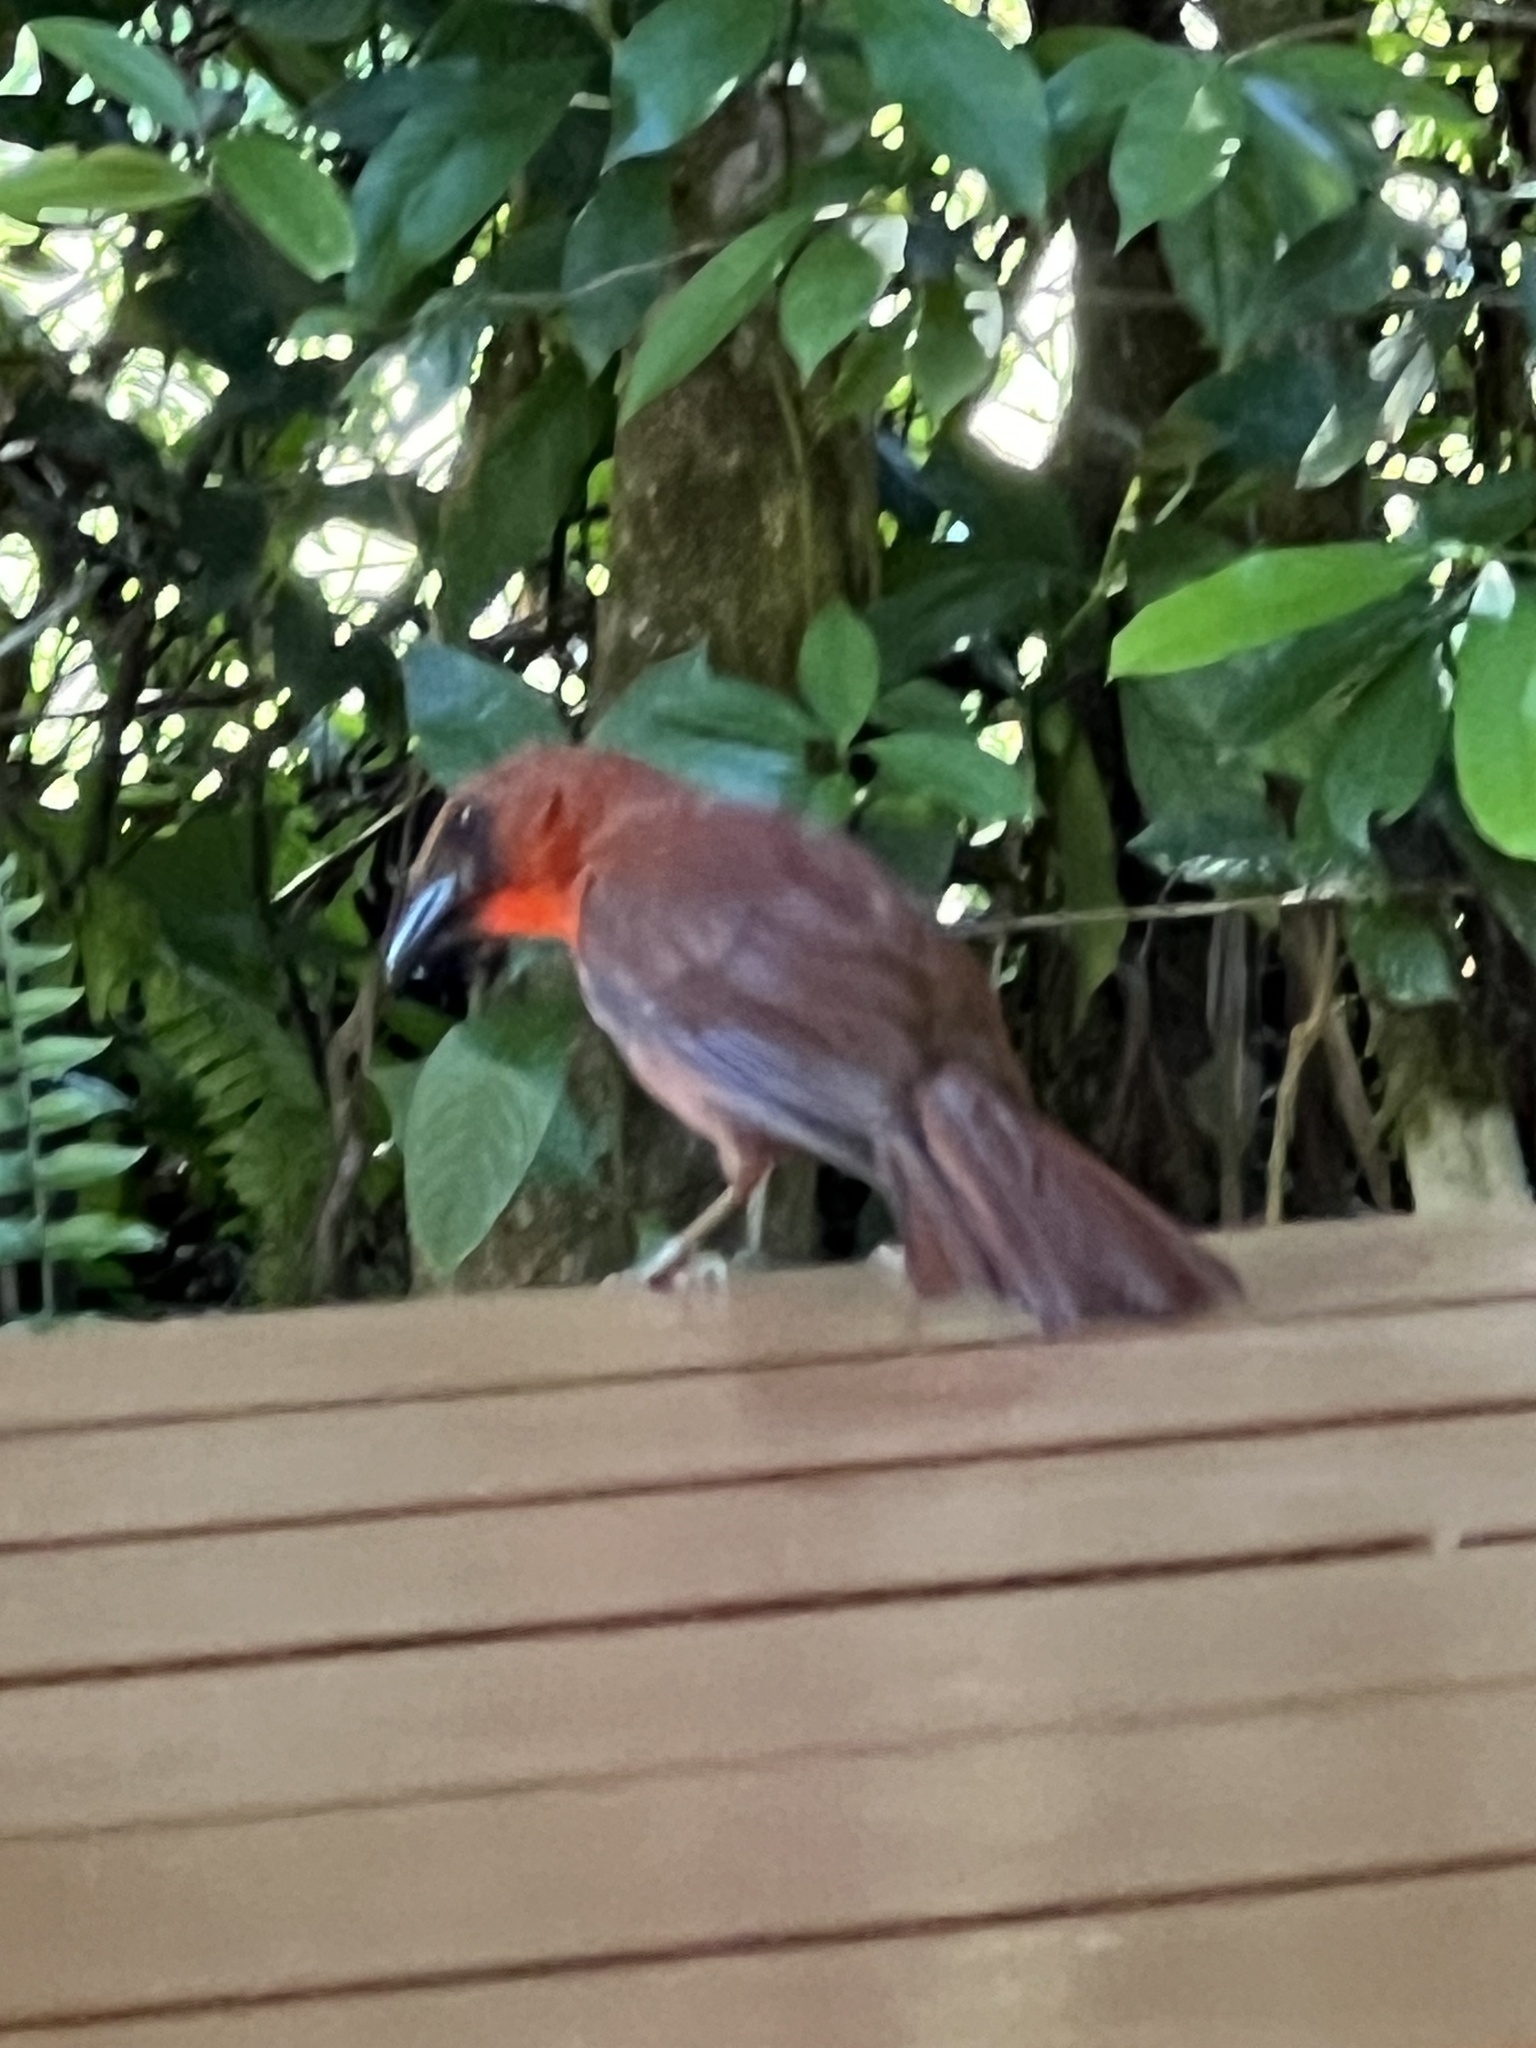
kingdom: Animalia
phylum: Chordata
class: Aves
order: Passeriformes
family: Cardinalidae
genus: Habia
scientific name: Habia fuscicauda
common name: Red-throated ant-tanager
